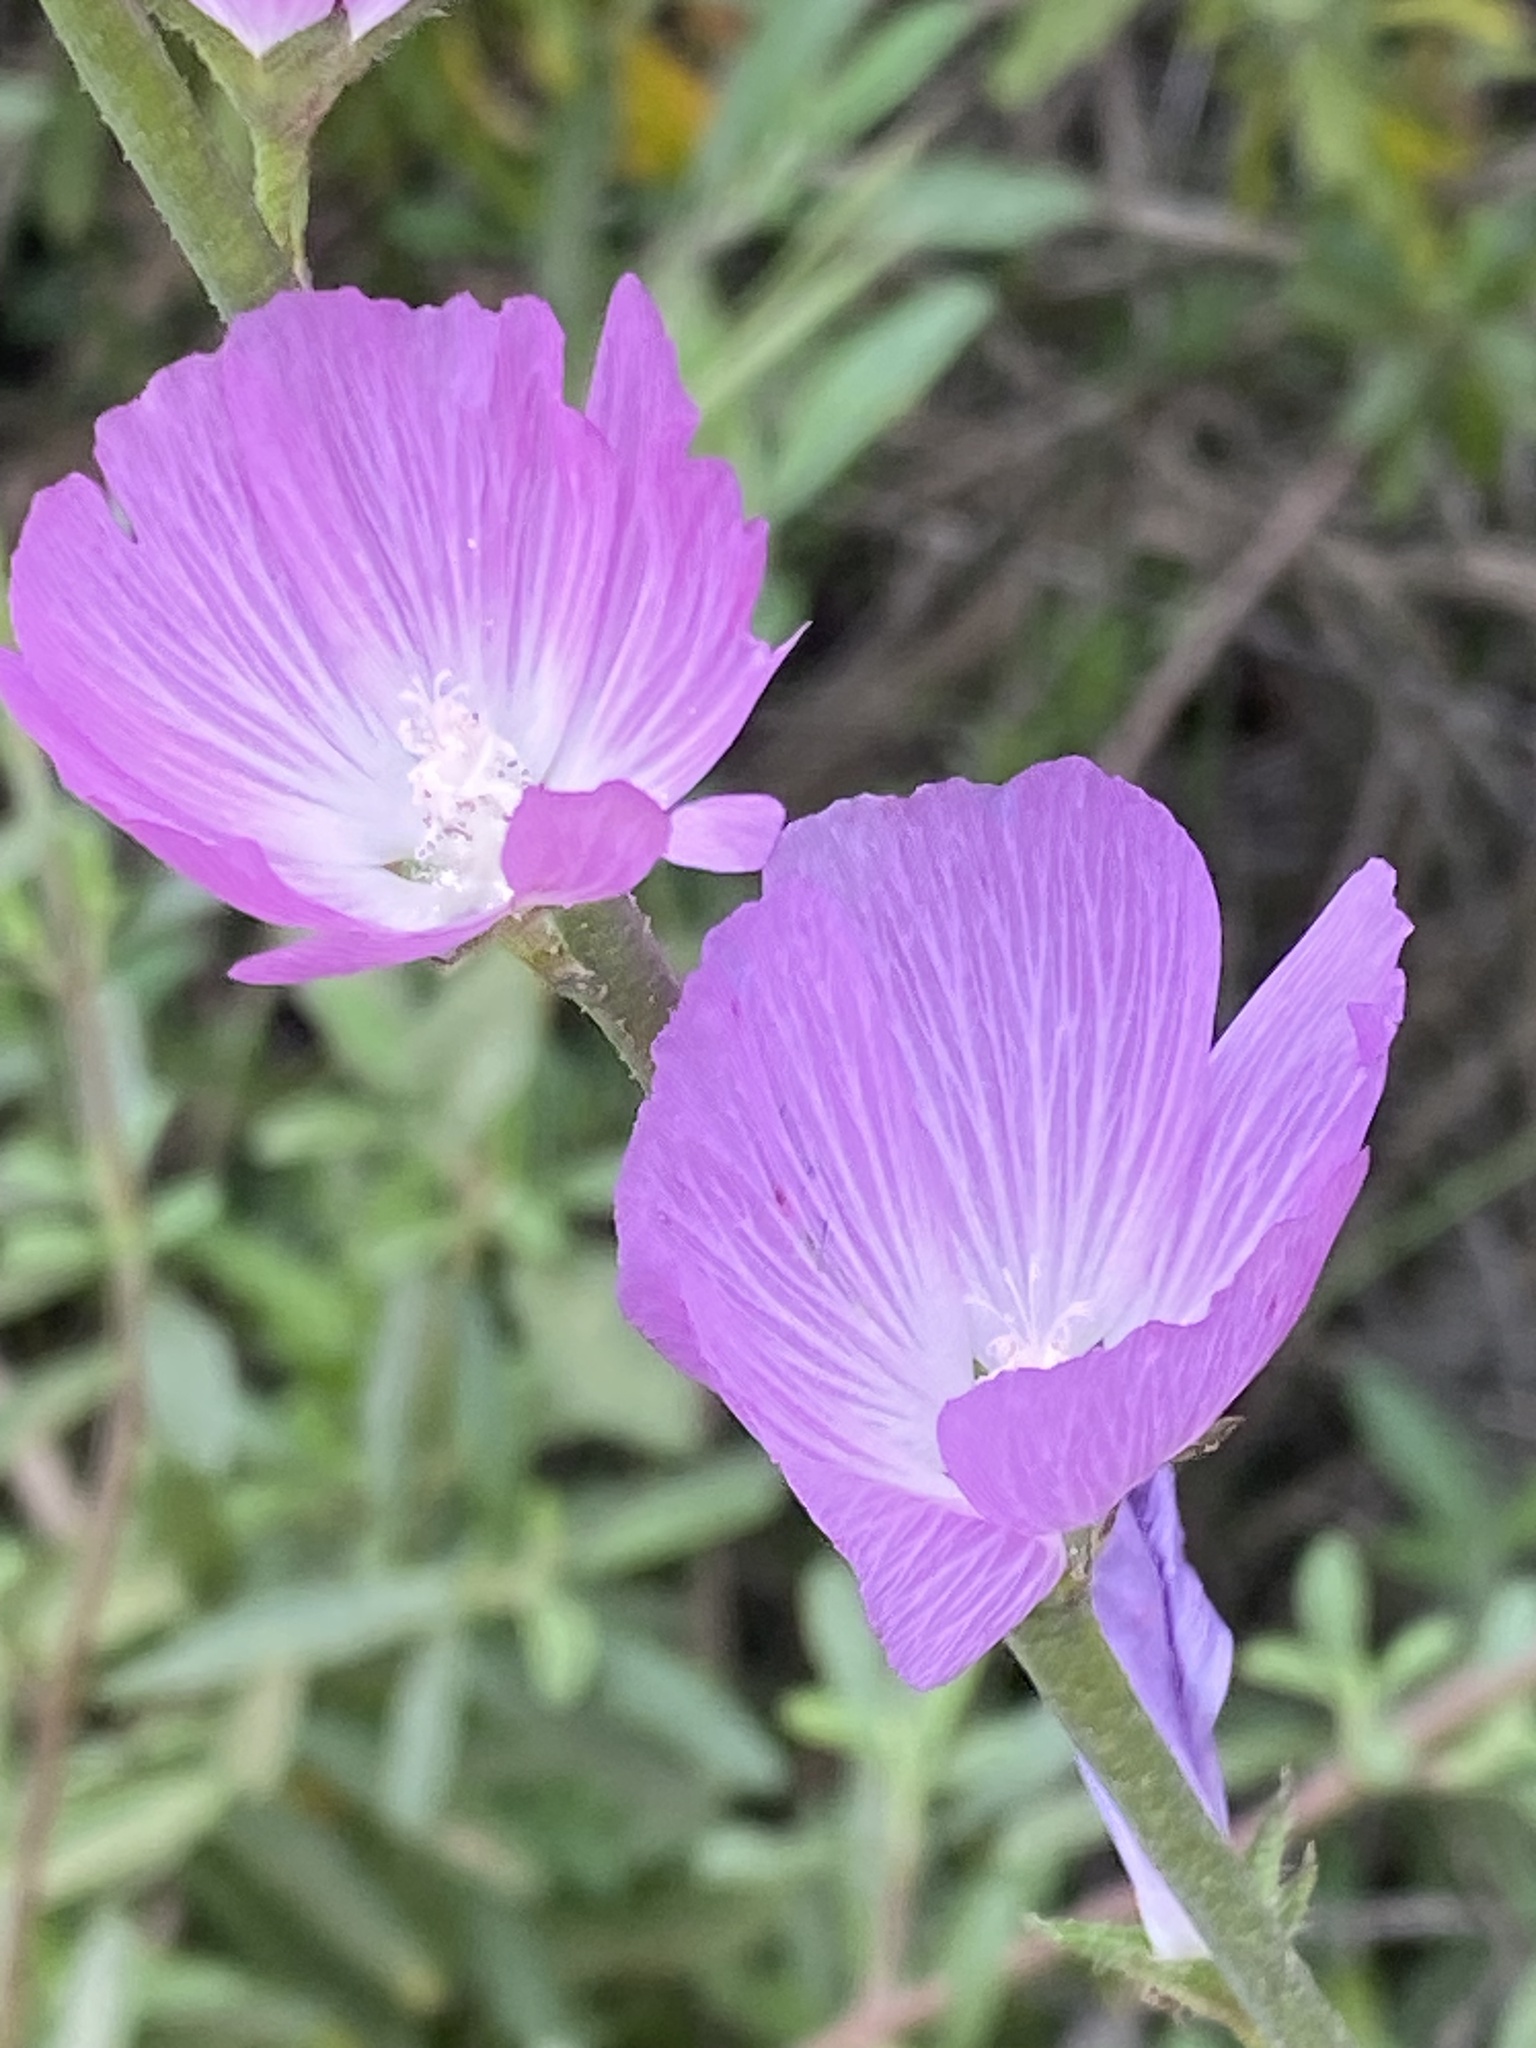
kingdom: Plantae
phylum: Tracheophyta
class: Magnoliopsida
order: Malvales
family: Malvaceae
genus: Sidalcea
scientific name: Sidalcea sparsifolia
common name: Southern checkerbloom
